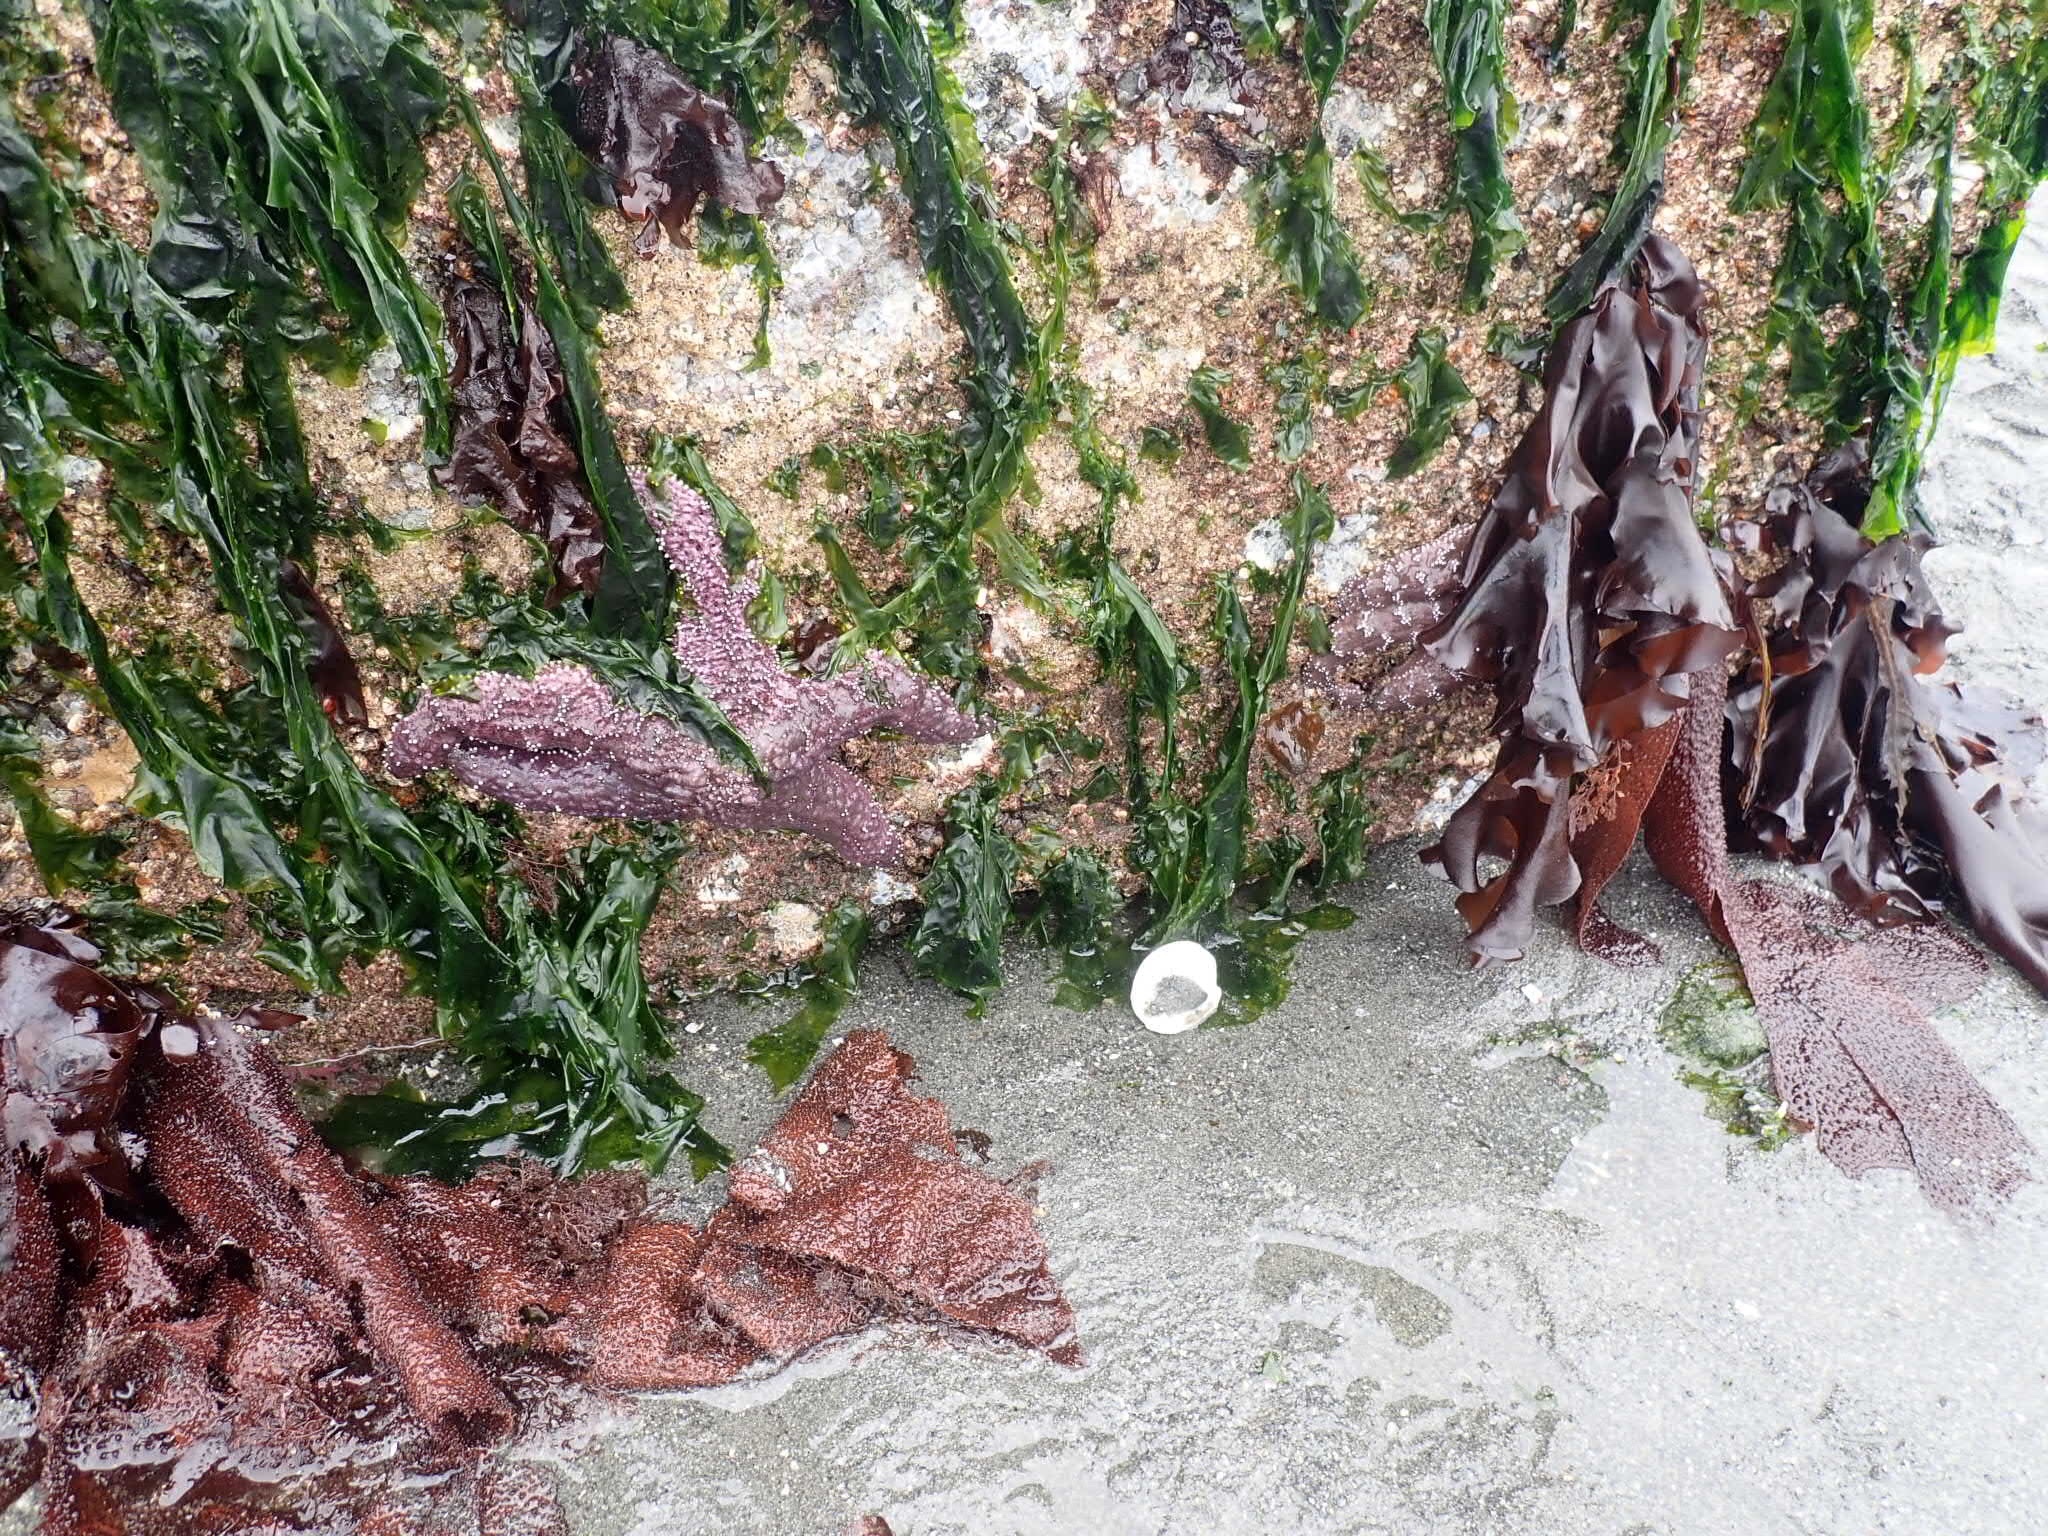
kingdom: Animalia
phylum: Echinodermata
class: Asteroidea
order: Forcipulatida
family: Asteriidae
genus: Pisaster
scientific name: Pisaster ochraceus
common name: Ochre stars
